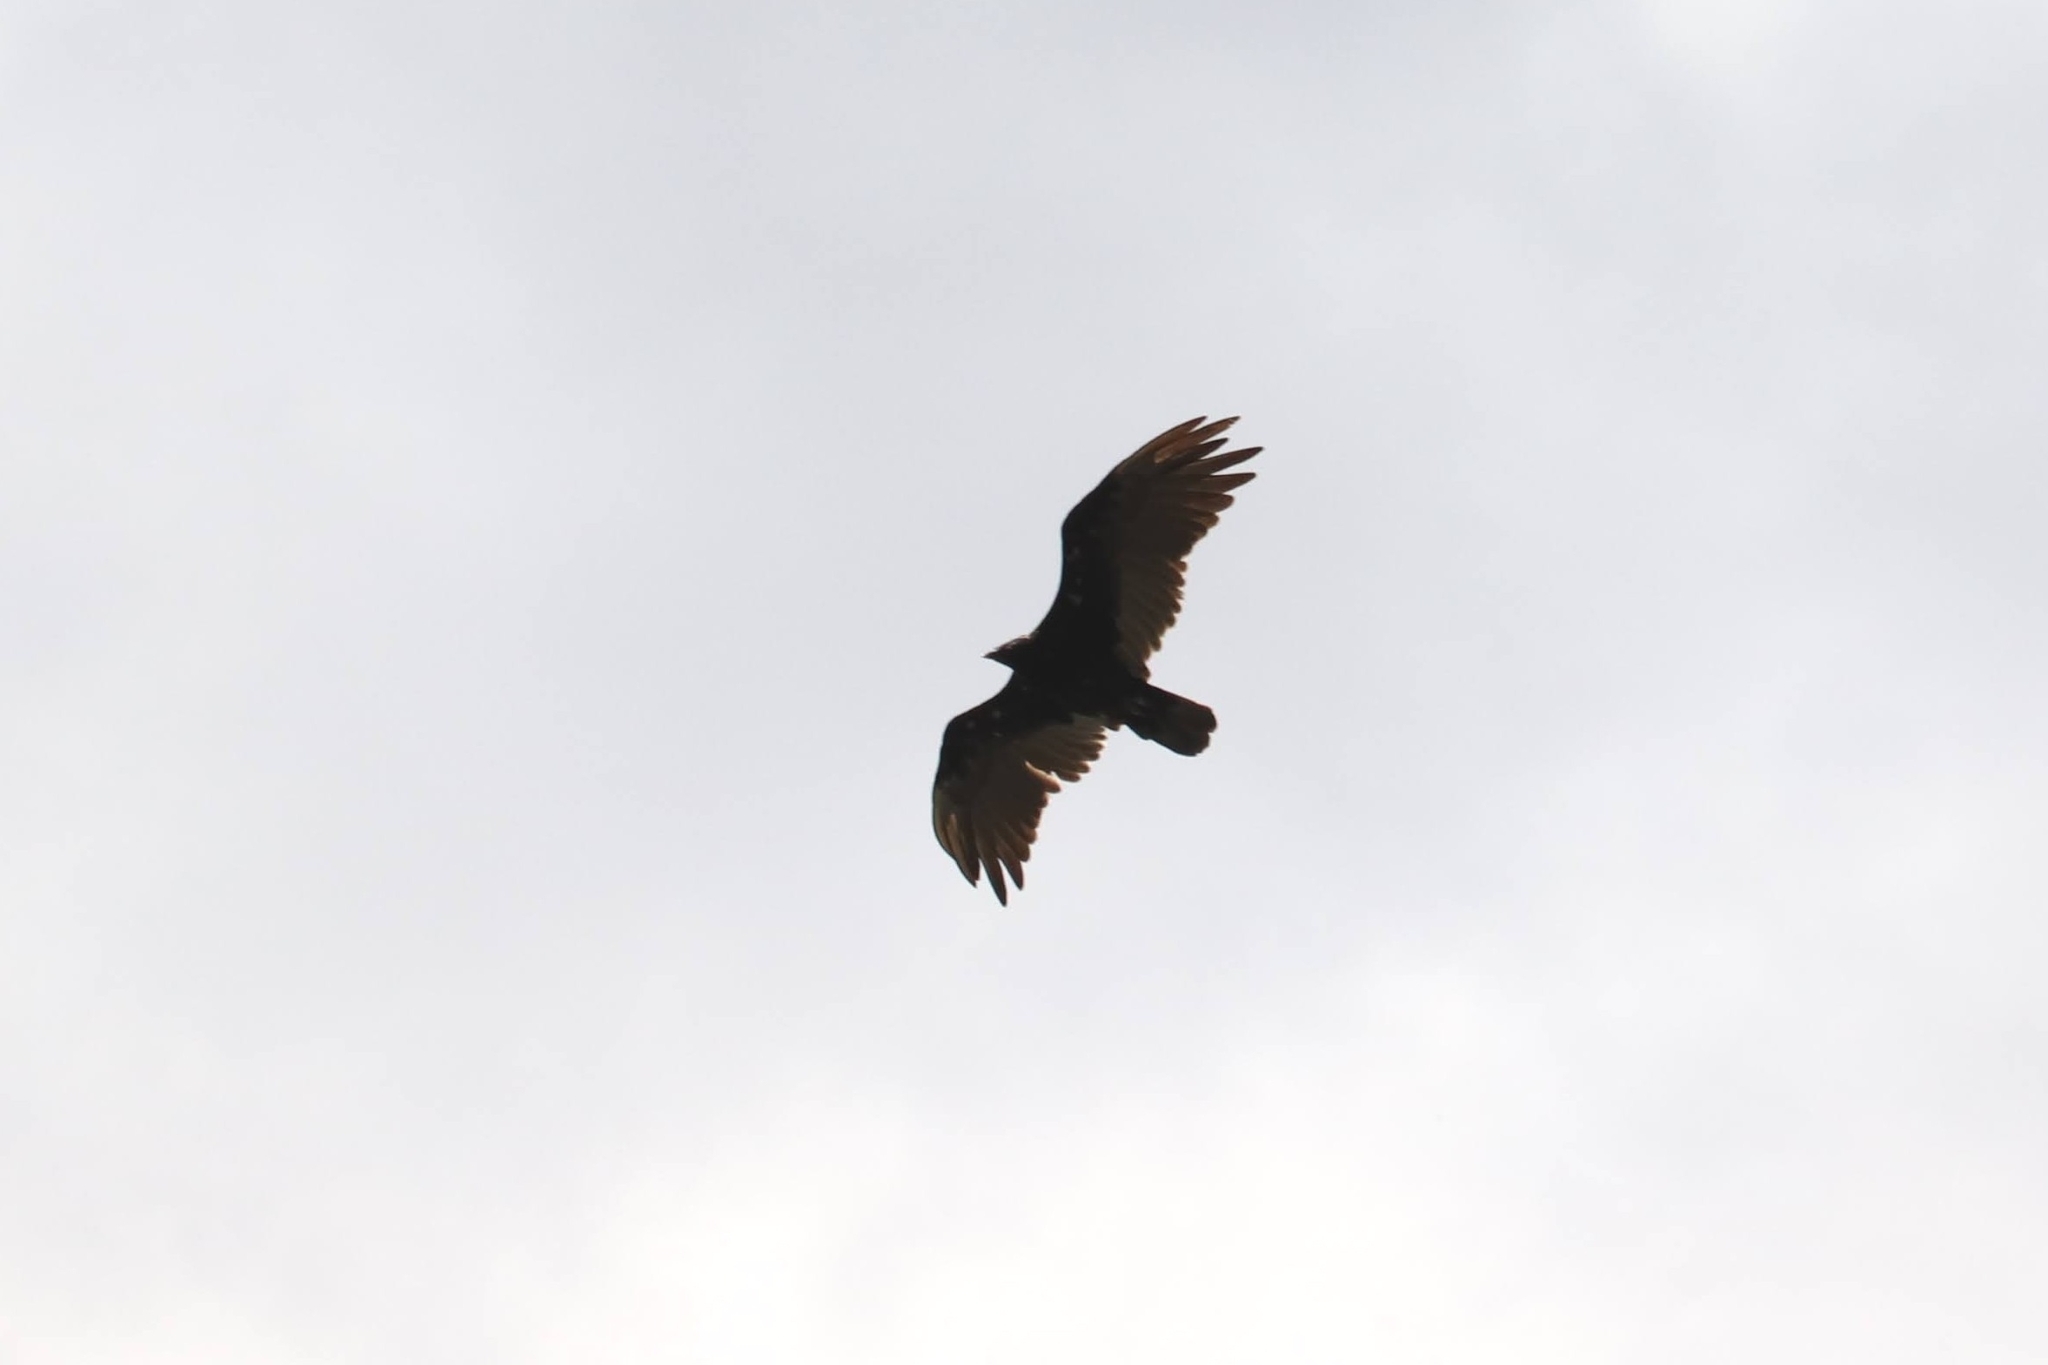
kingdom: Animalia
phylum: Chordata
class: Aves
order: Accipitriformes
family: Cathartidae
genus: Cathartes
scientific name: Cathartes aura
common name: Turkey vulture
